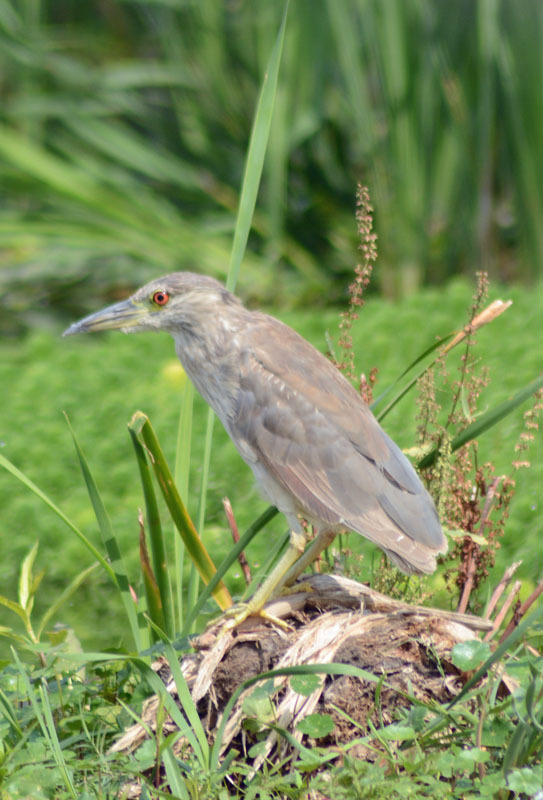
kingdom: Animalia
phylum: Chordata
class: Aves
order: Pelecaniformes
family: Ardeidae
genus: Nycticorax
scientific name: Nycticorax nycticorax
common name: Black-crowned night heron
